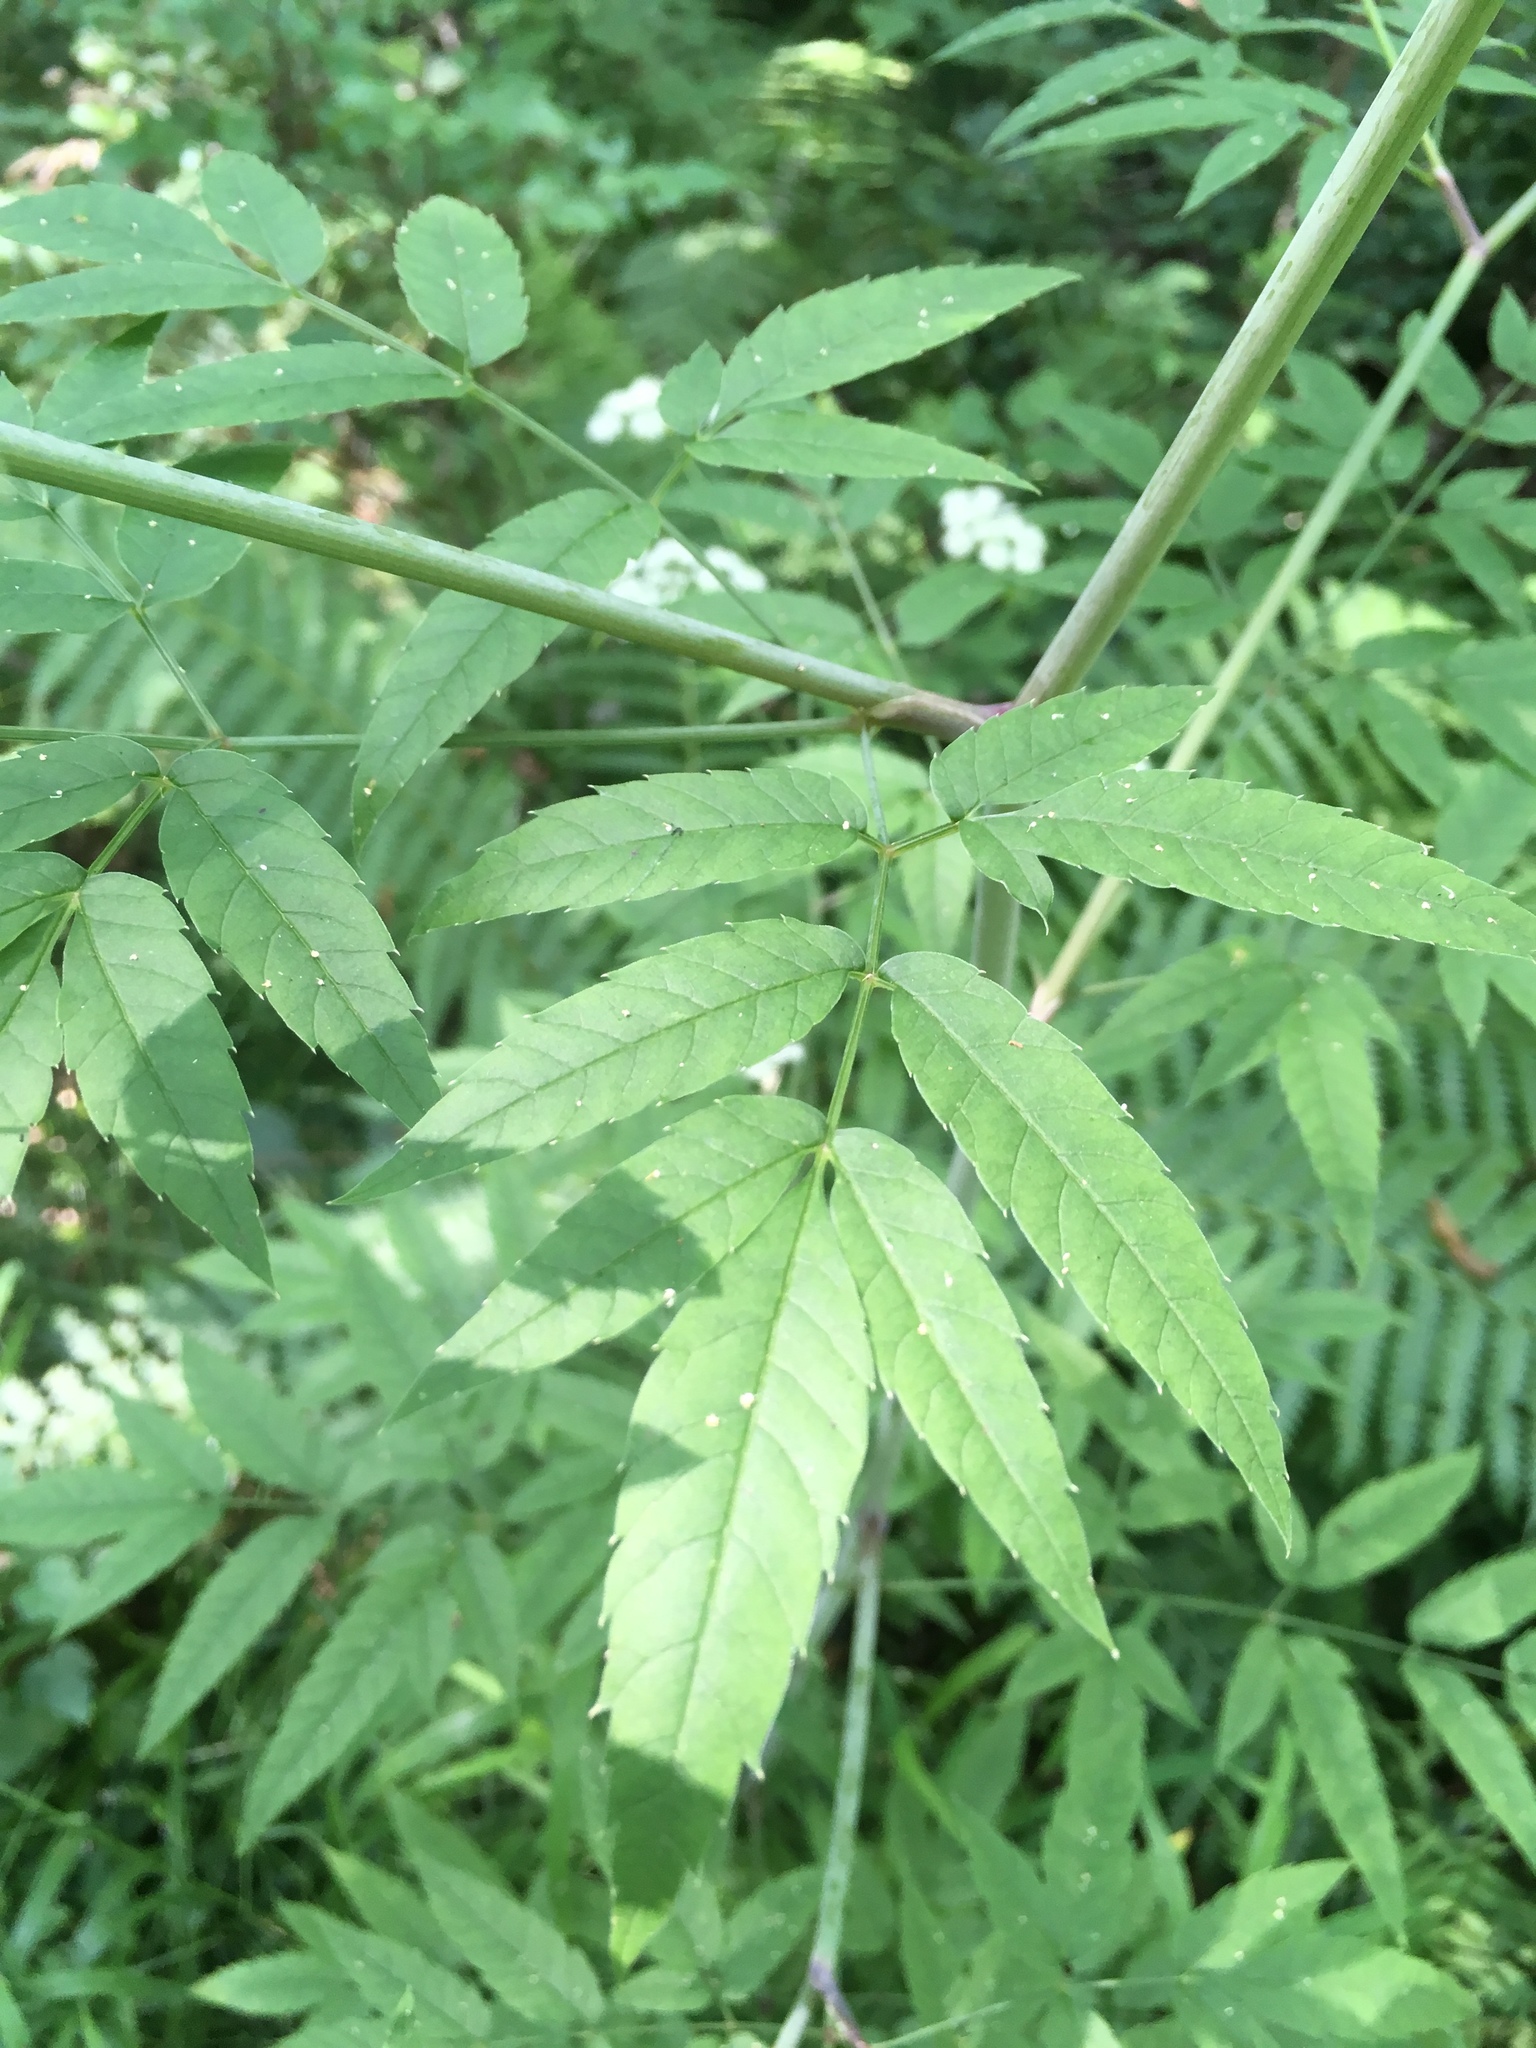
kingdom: Plantae
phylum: Tracheophyta
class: Magnoliopsida
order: Apiales
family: Apiaceae
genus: Cicuta
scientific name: Cicuta maculata
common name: Spotted cowbane
